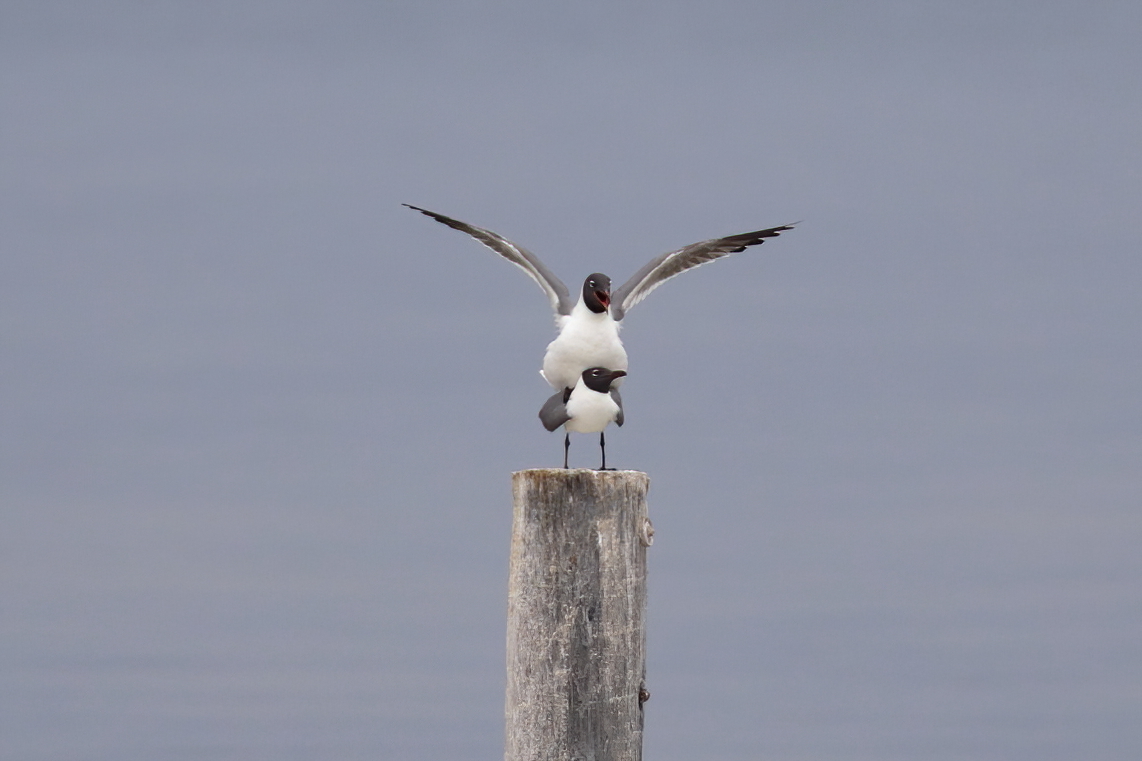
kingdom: Animalia
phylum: Chordata
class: Aves
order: Charadriiformes
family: Laridae
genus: Leucophaeus
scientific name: Leucophaeus atricilla
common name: Laughing gull
